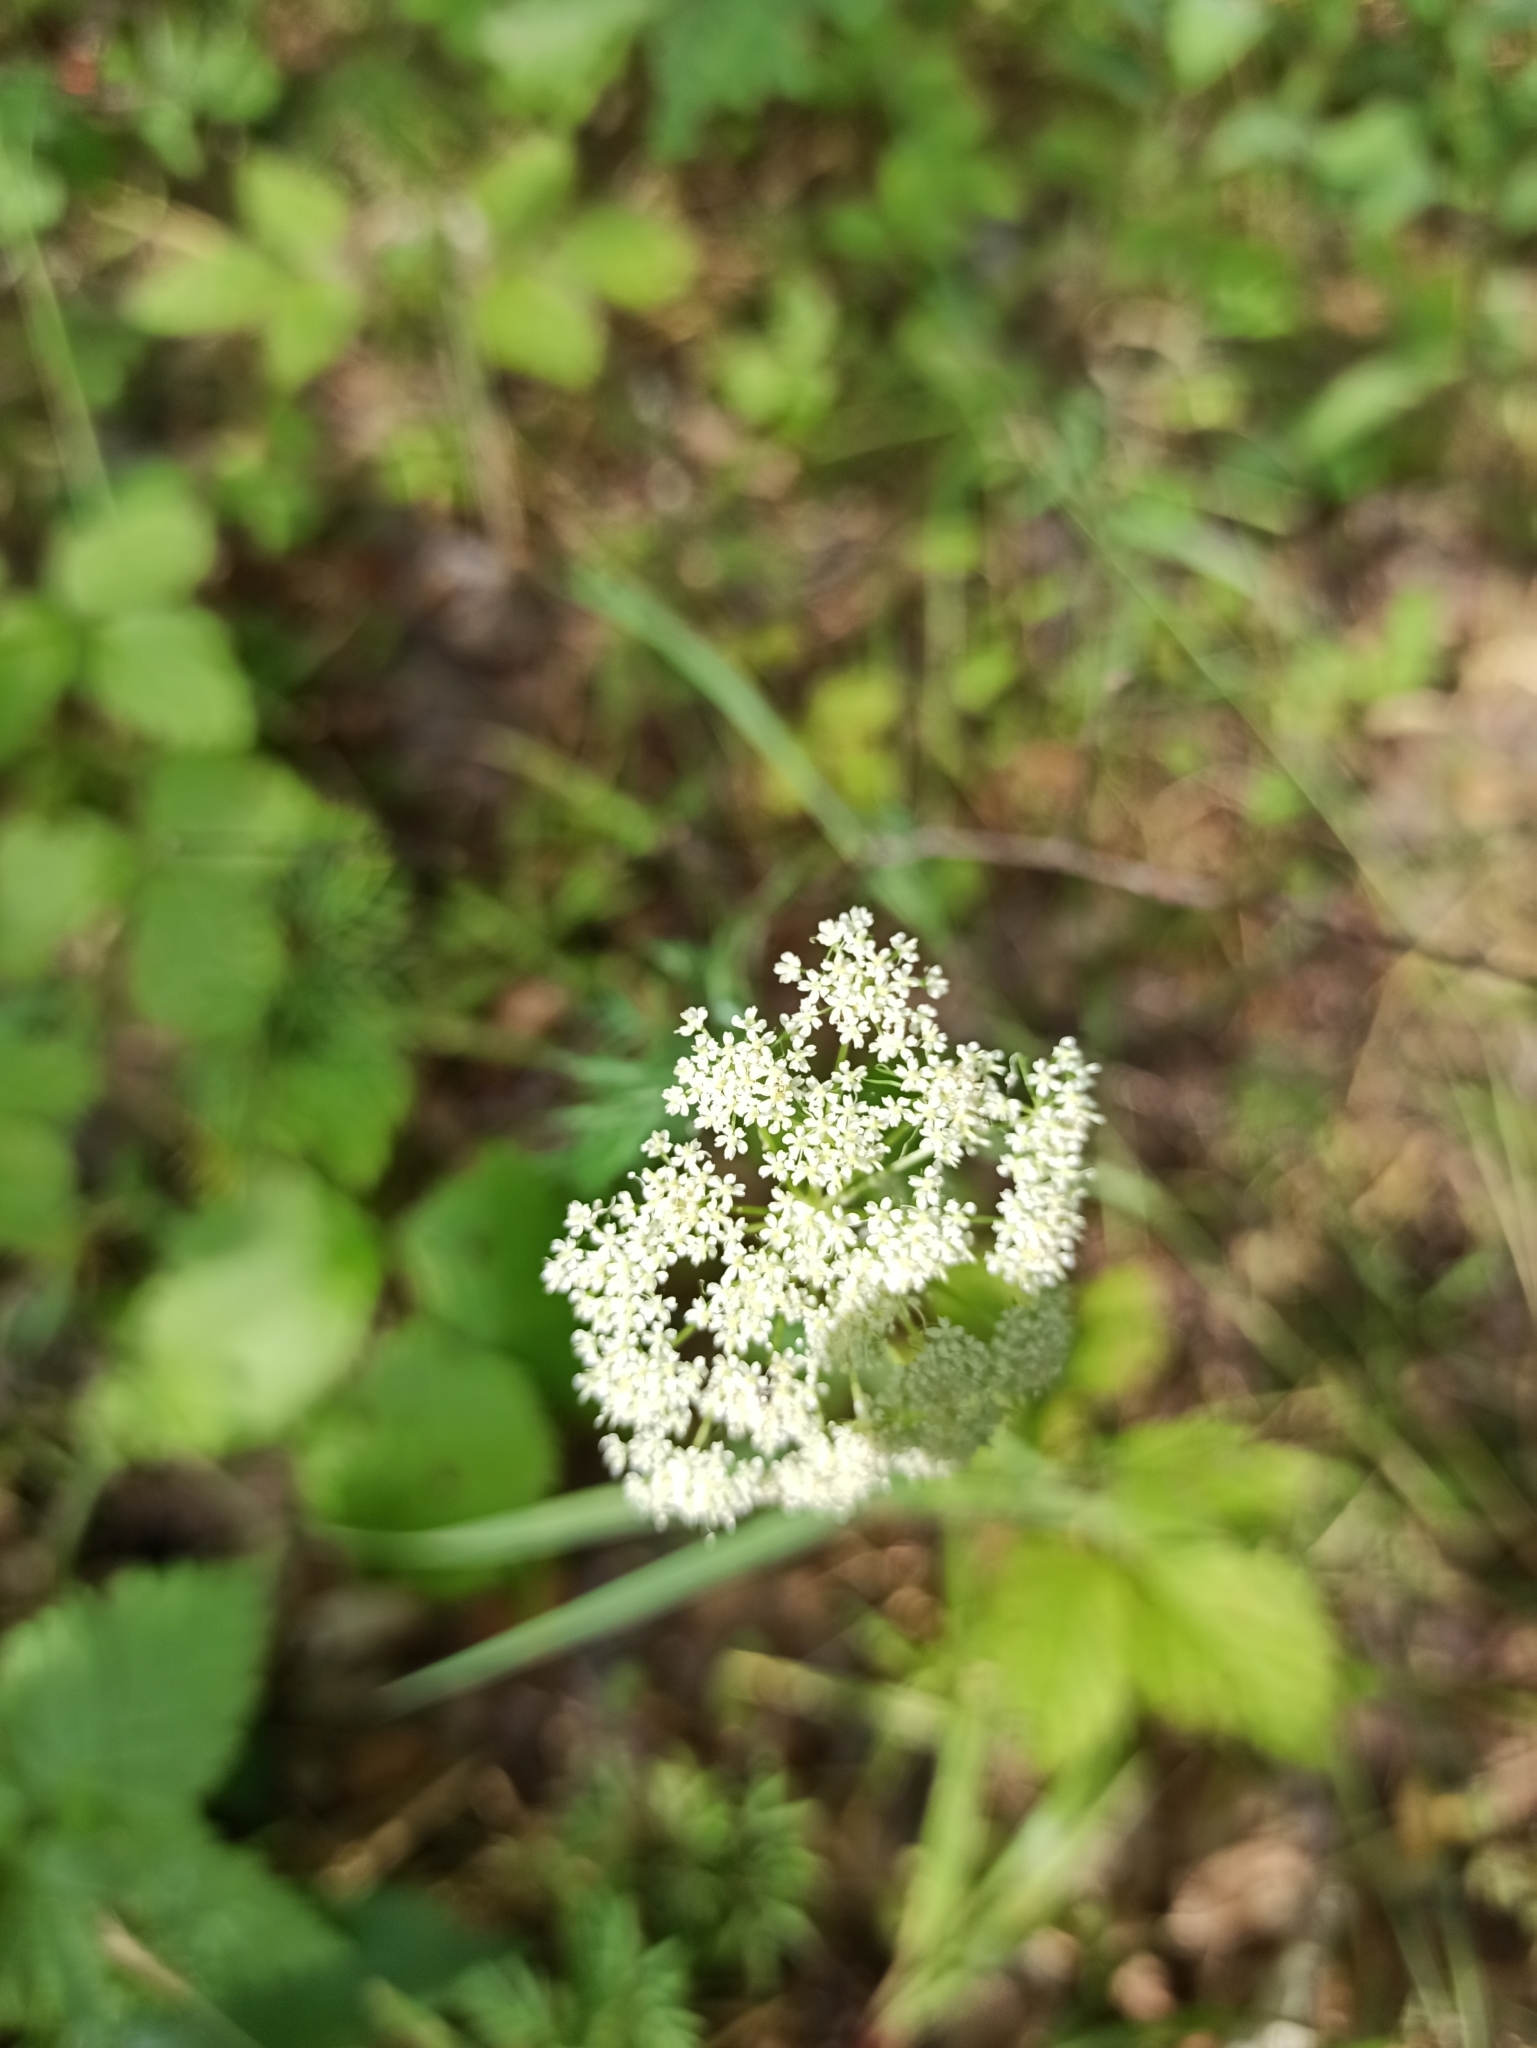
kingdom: Plantae
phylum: Tracheophyta
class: Magnoliopsida
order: Apiales
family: Apiaceae
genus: Pimpinella
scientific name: Pimpinella saxifraga
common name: Burnet-saxifrage
